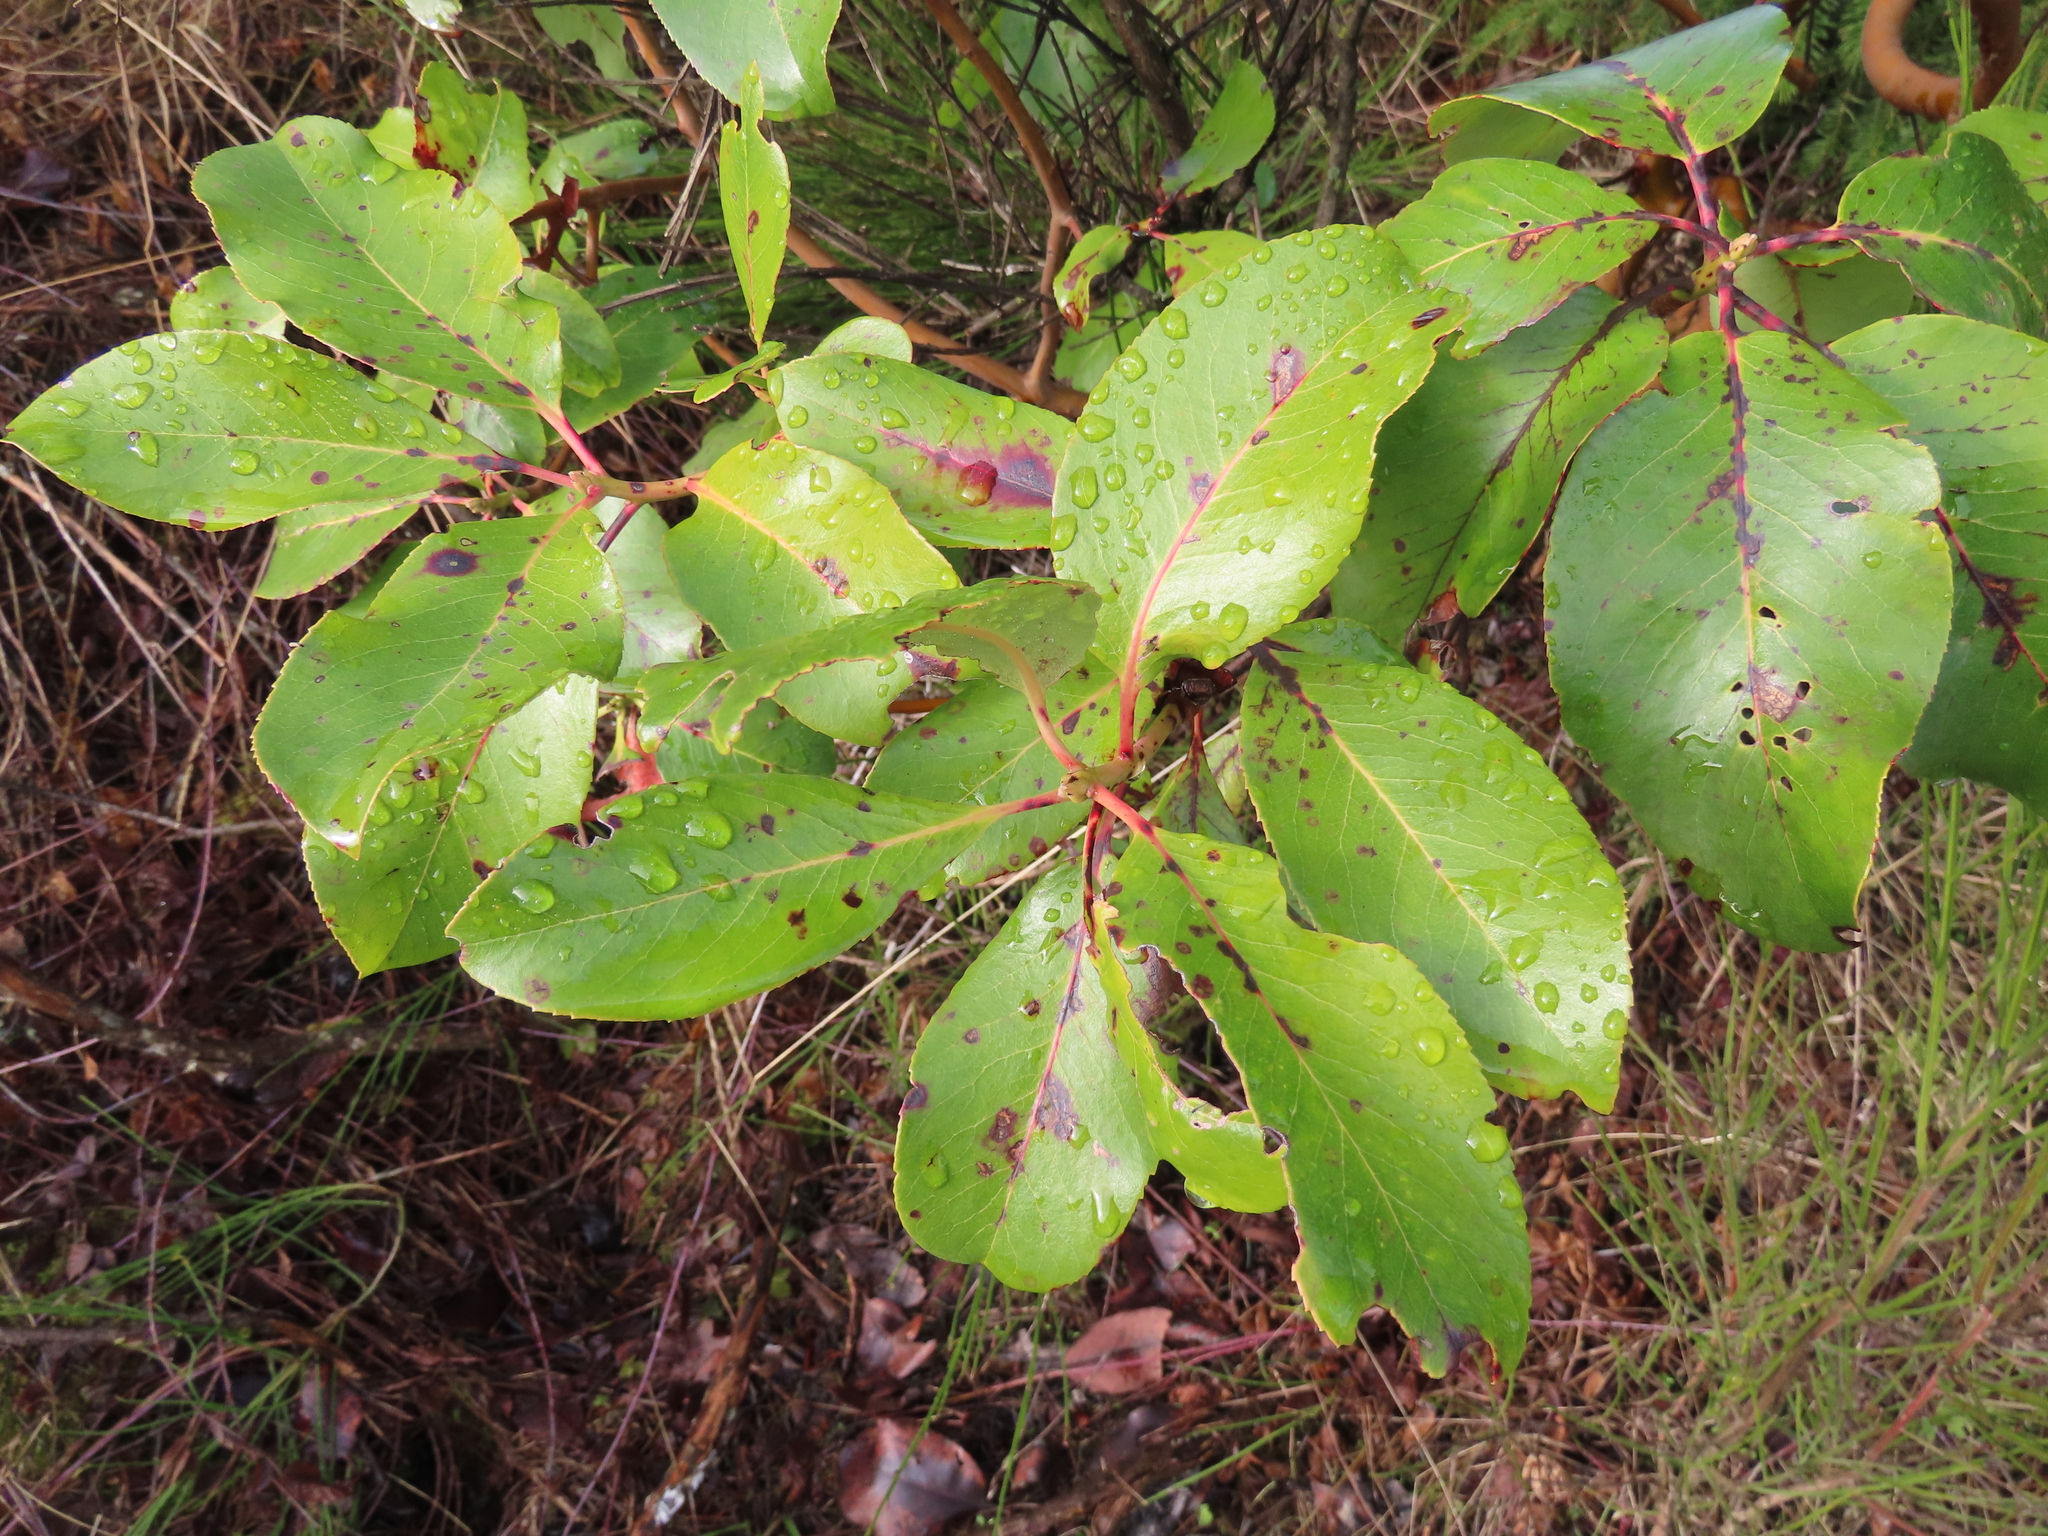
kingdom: Plantae
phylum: Tracheophyta
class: Magnoliopsida
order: Ericales
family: Ericaceae
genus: Arbutus
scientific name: Arbutus menziesii
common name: Pacific madrone
